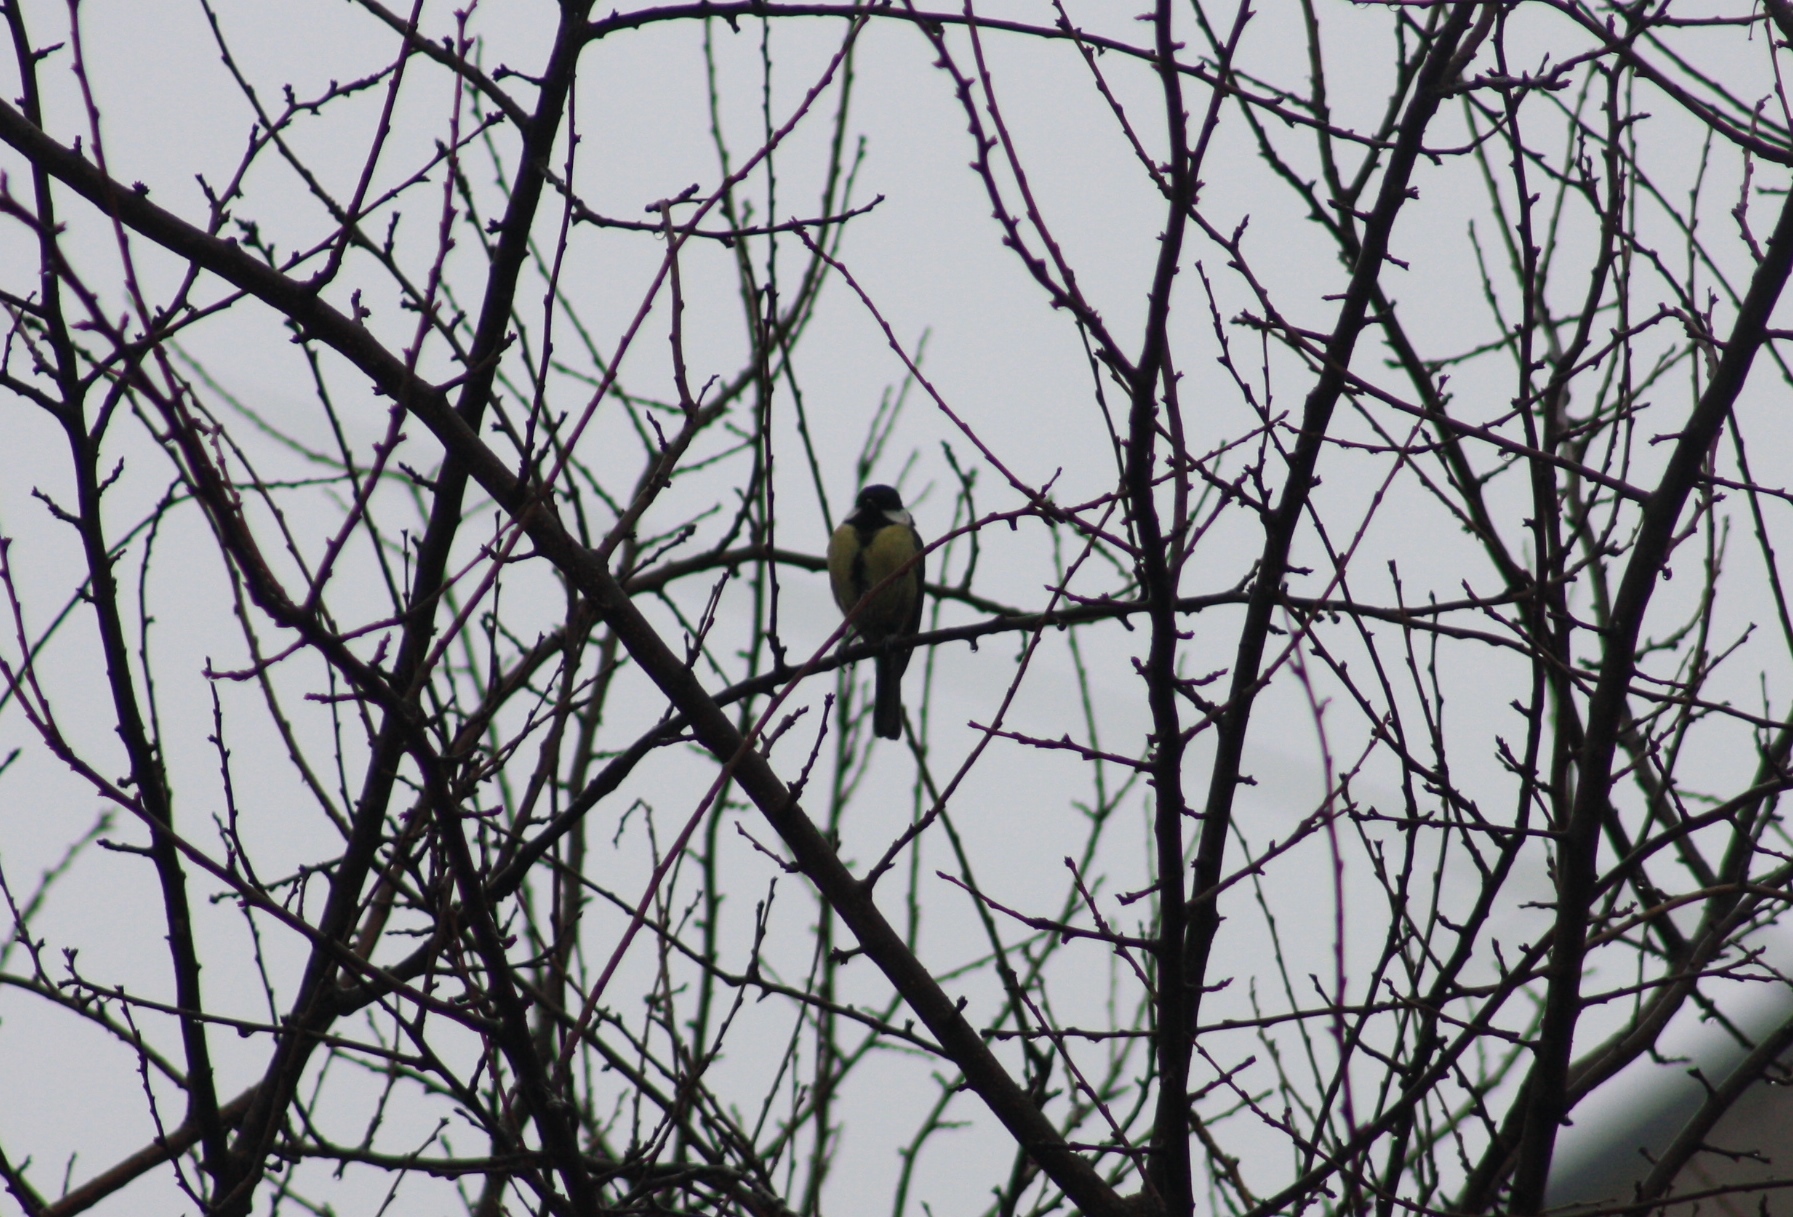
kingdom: Animalia
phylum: Chordata
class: Aves
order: Passeriformes
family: Paridae
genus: Parus
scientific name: Parus major
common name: Great tit
